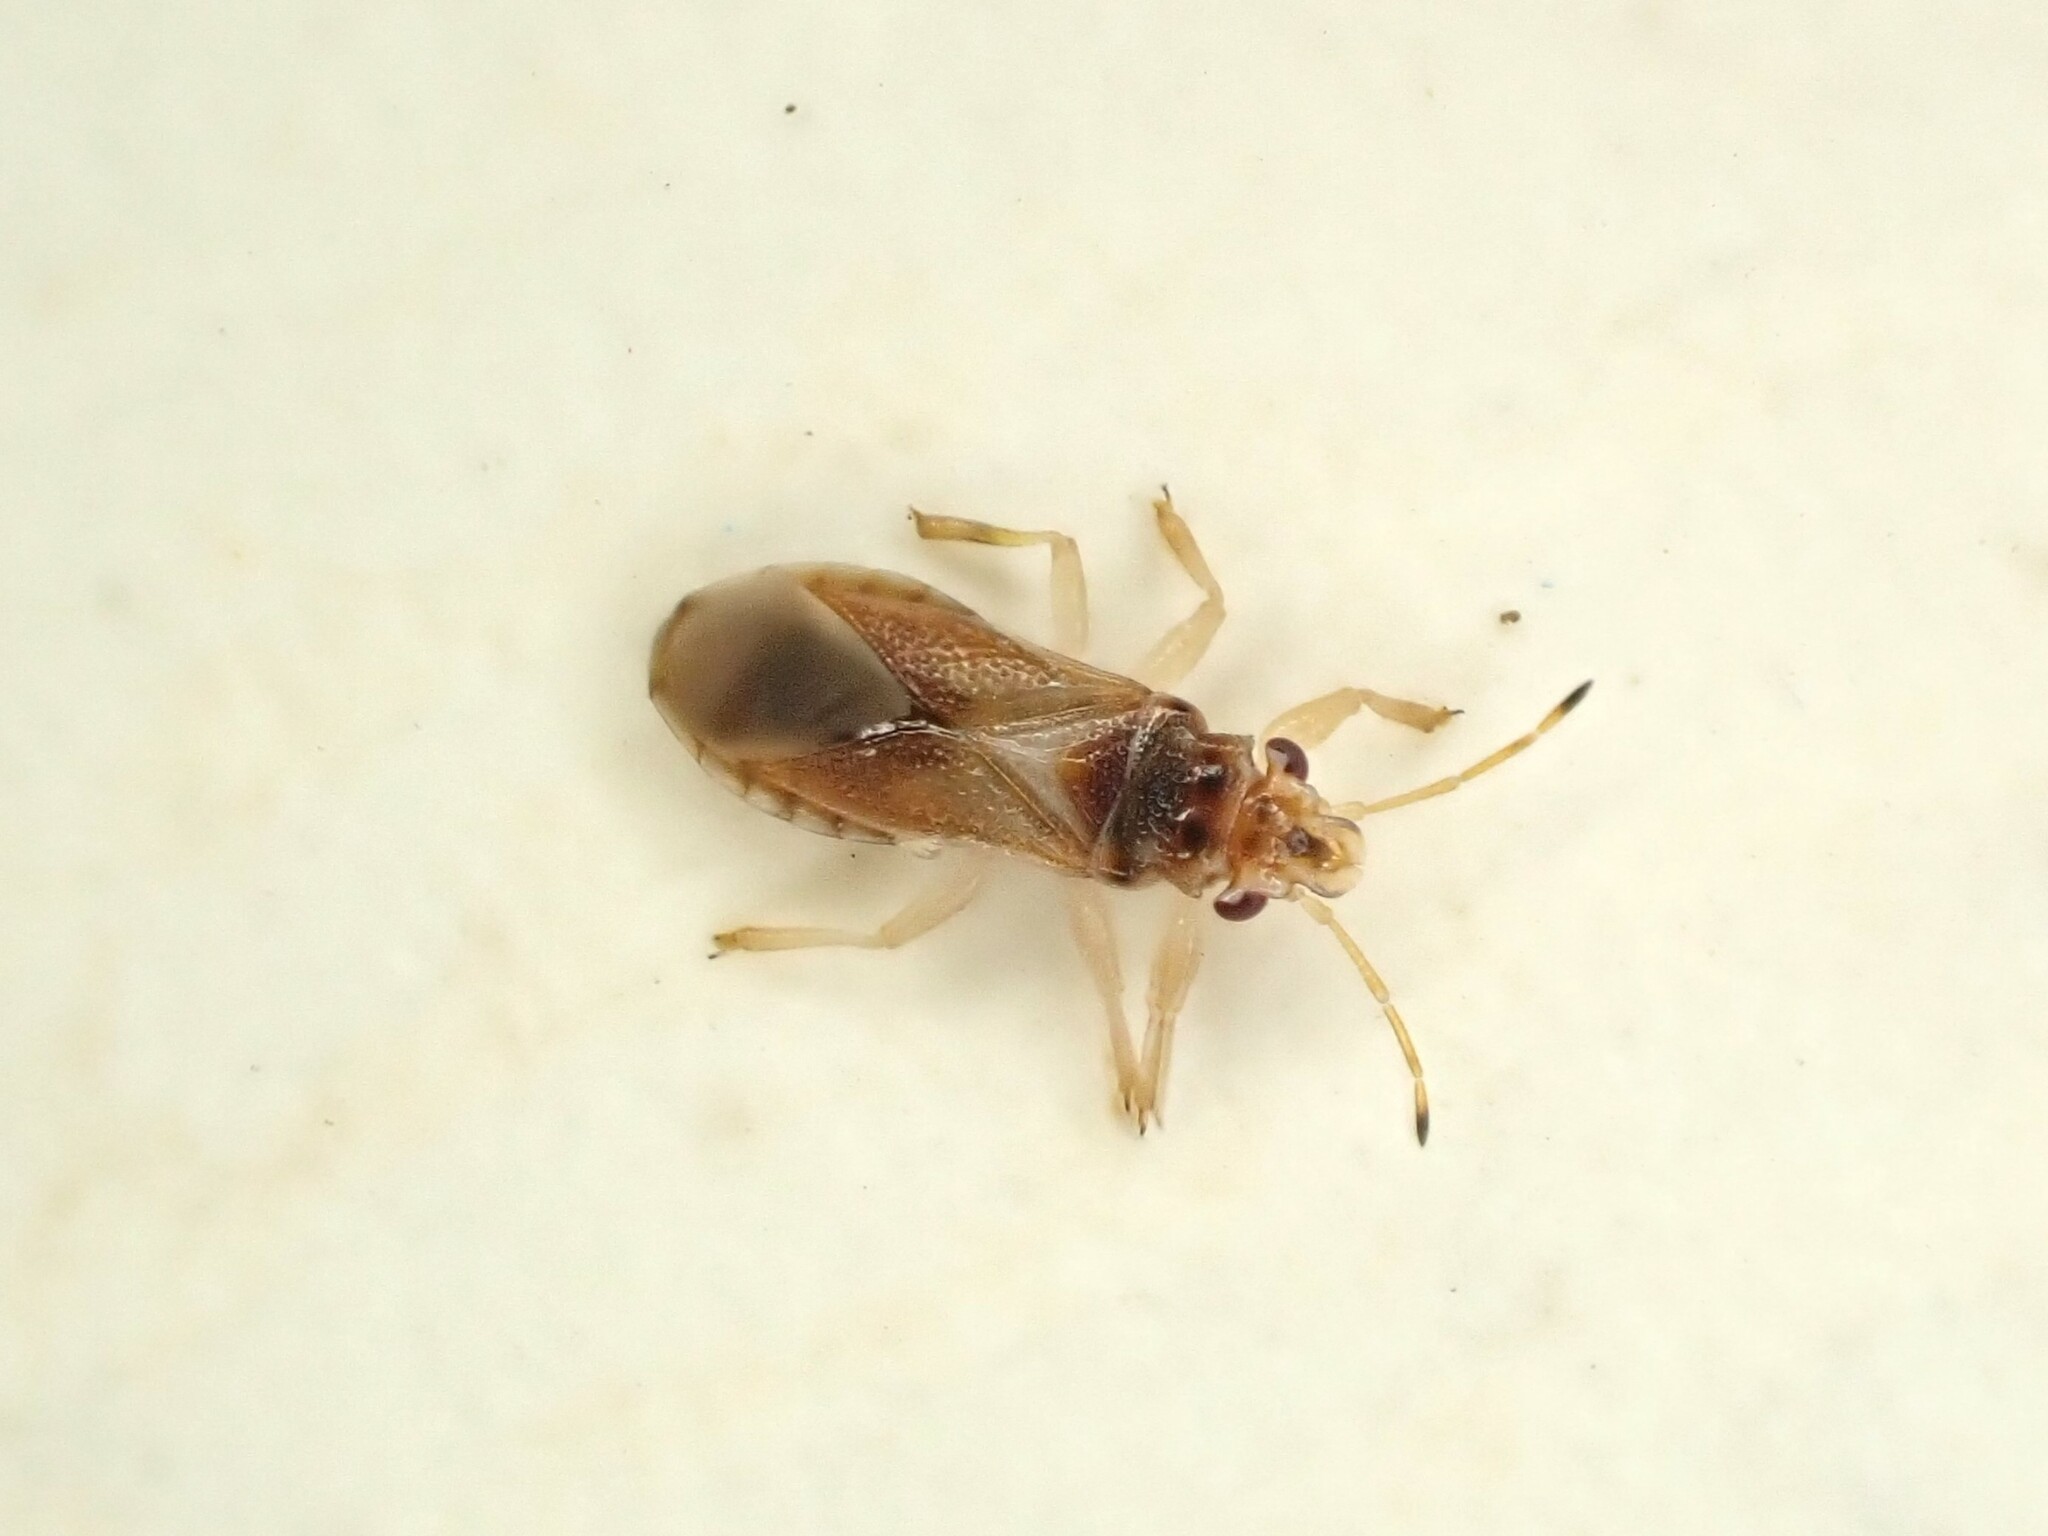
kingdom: Animalia
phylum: Arthropoda
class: Insecta
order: Hemiptera
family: Thaumastocoridae
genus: Thaumastocoris
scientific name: Thaumastocoris peregrinus
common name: Bronze bug
